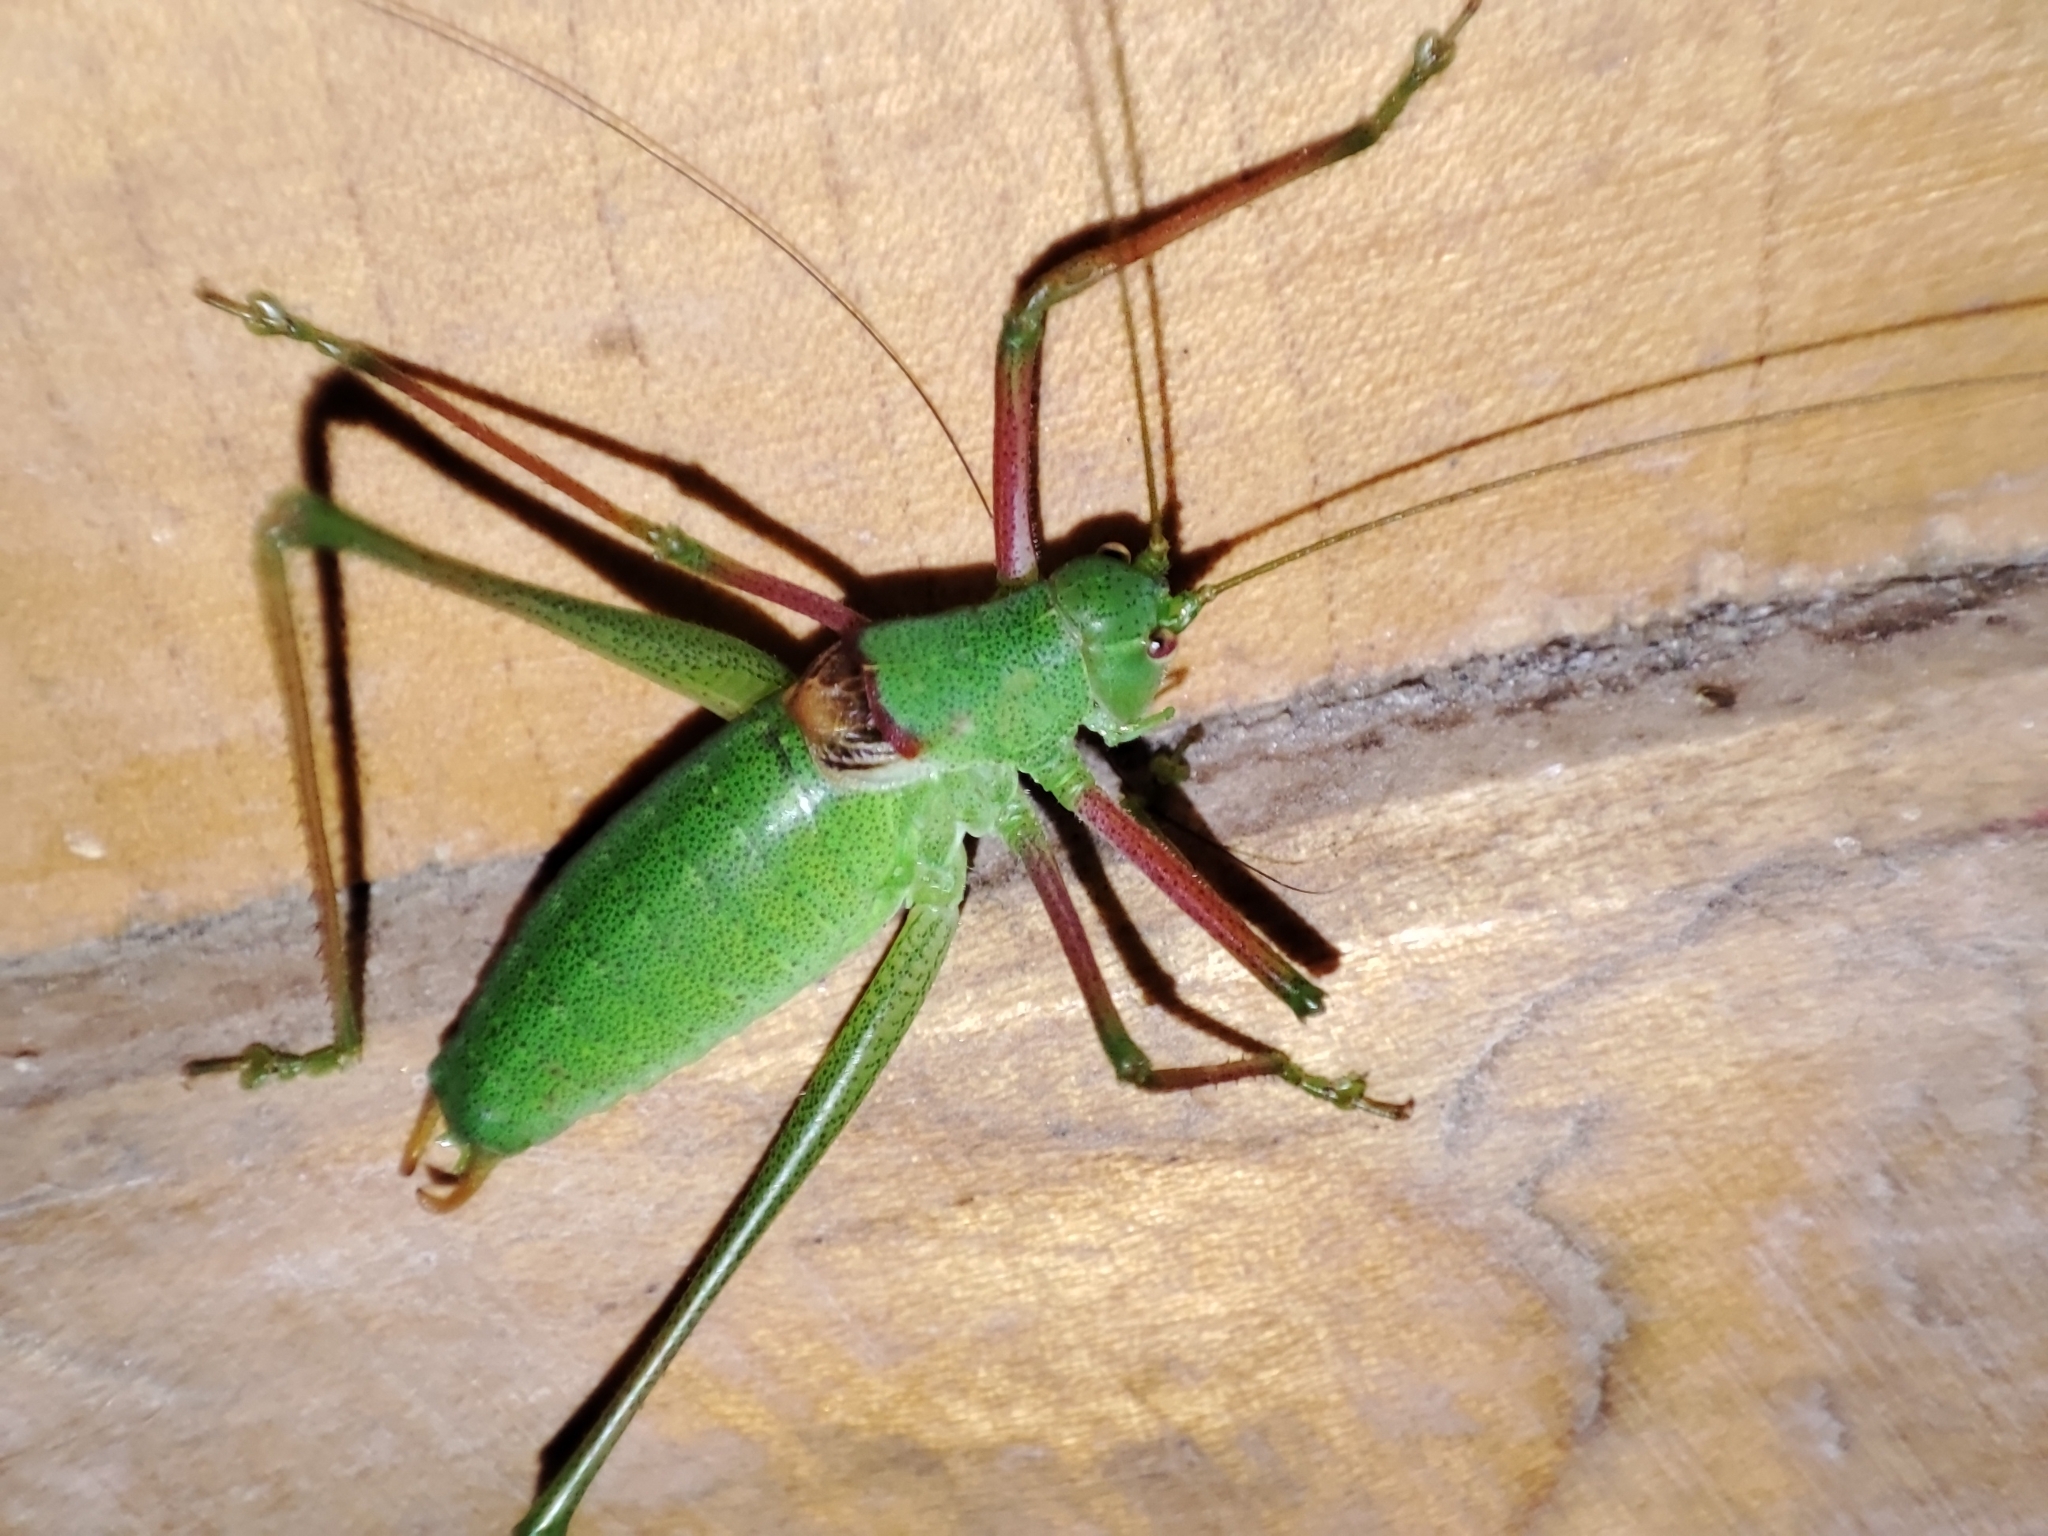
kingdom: Animalia
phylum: Arthropoda
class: Insecta
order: Orthoptera
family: Tettigoniidae
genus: Poecilimon
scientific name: Poecilimon schmidtii
